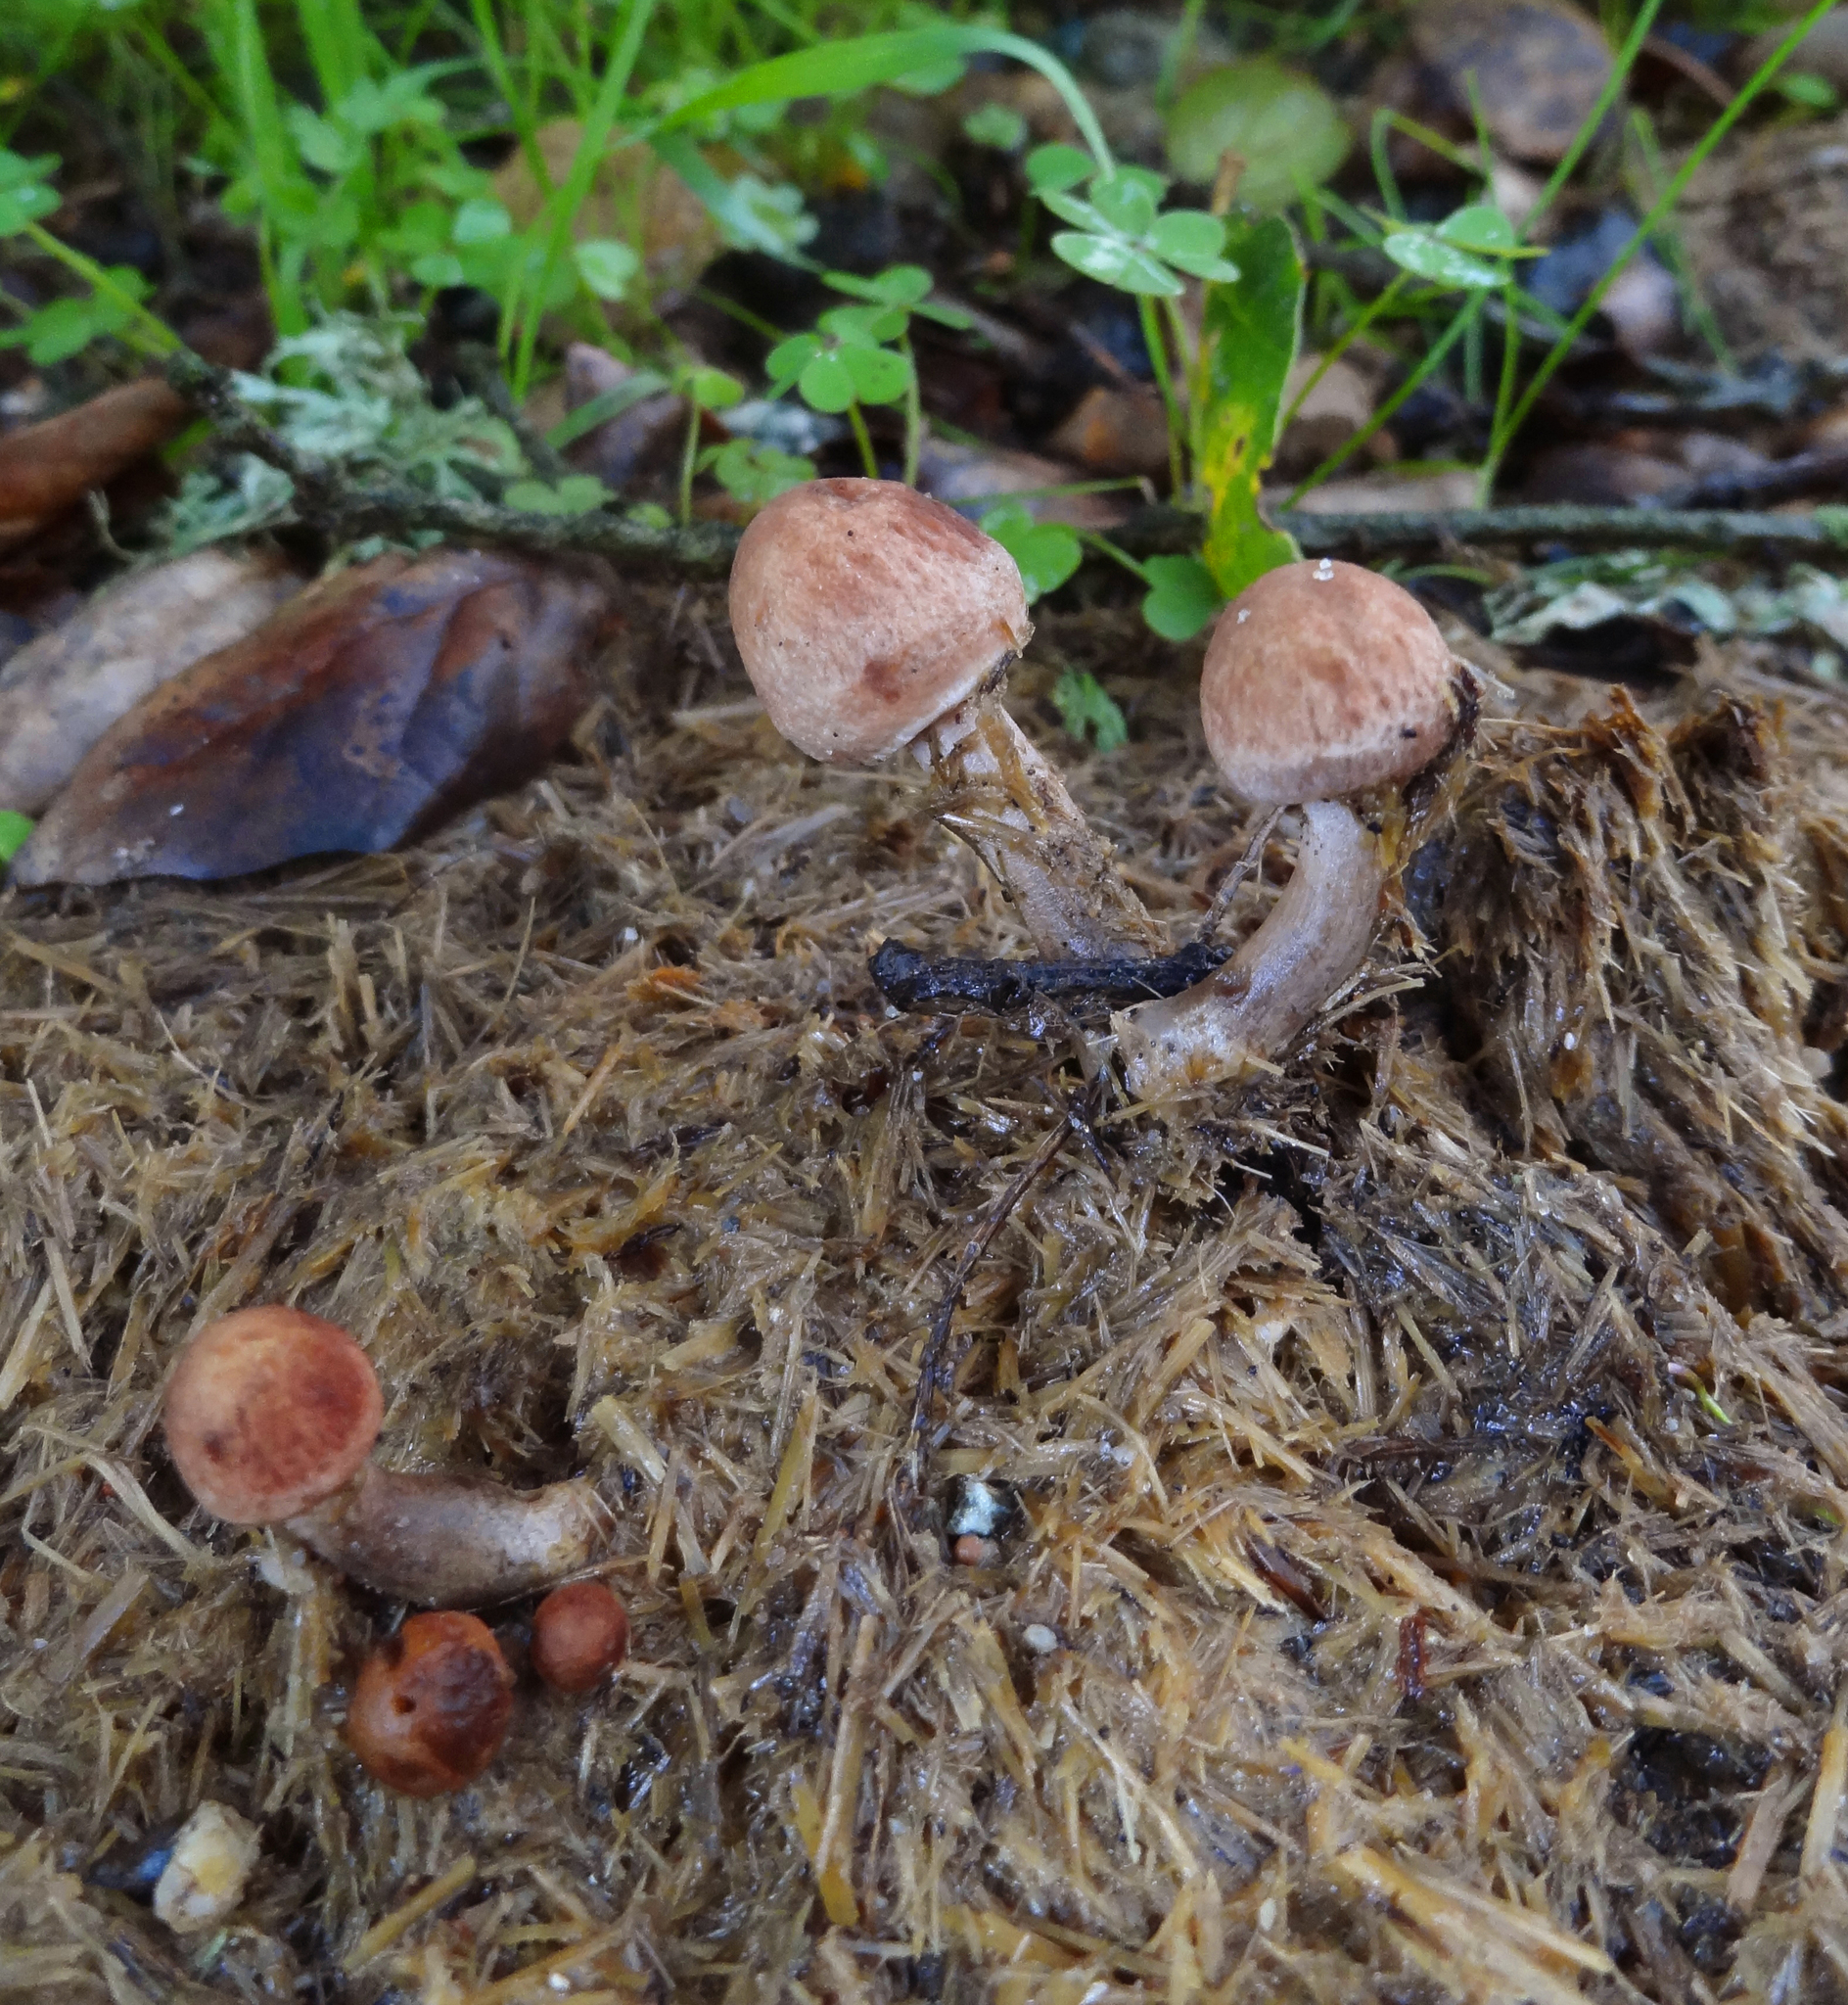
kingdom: Fungi
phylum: Basidiomycota
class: Agaricomycetes
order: Agaricales
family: Bolbitiaceae
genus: Panaeolus
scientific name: Panaeolus cinctulus
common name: Banded mottlegill
